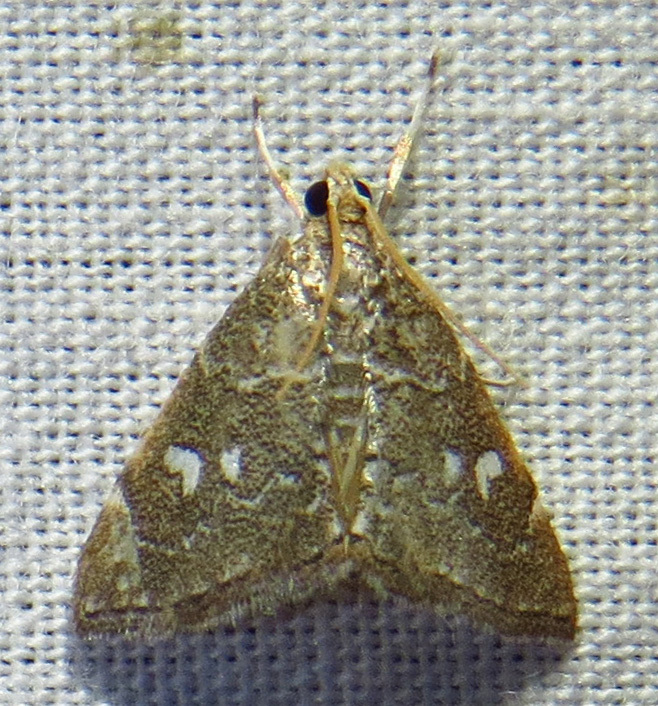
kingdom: Animalia
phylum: Arthropoda
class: Insecta
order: Lepidoptera
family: Crambidae
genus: Nephrogramma
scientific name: Nephrogramma reniculalis
